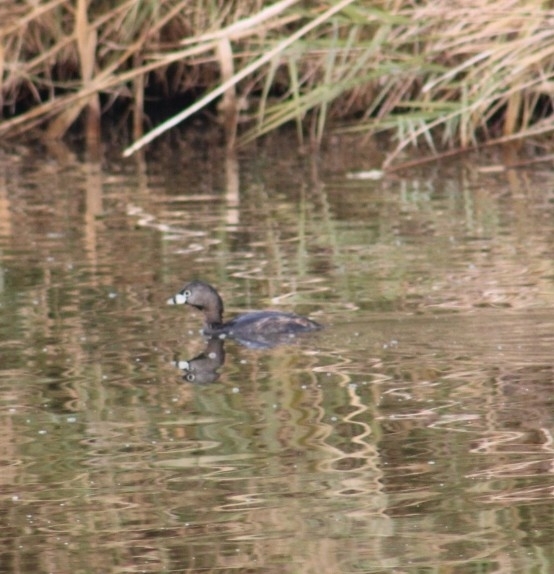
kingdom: Animalia
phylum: Chordata
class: Aves
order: Podicipediformes
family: Podicipedidae
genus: Podilymbus
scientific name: Podilymbus podiceps
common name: Pied-billed grebe
